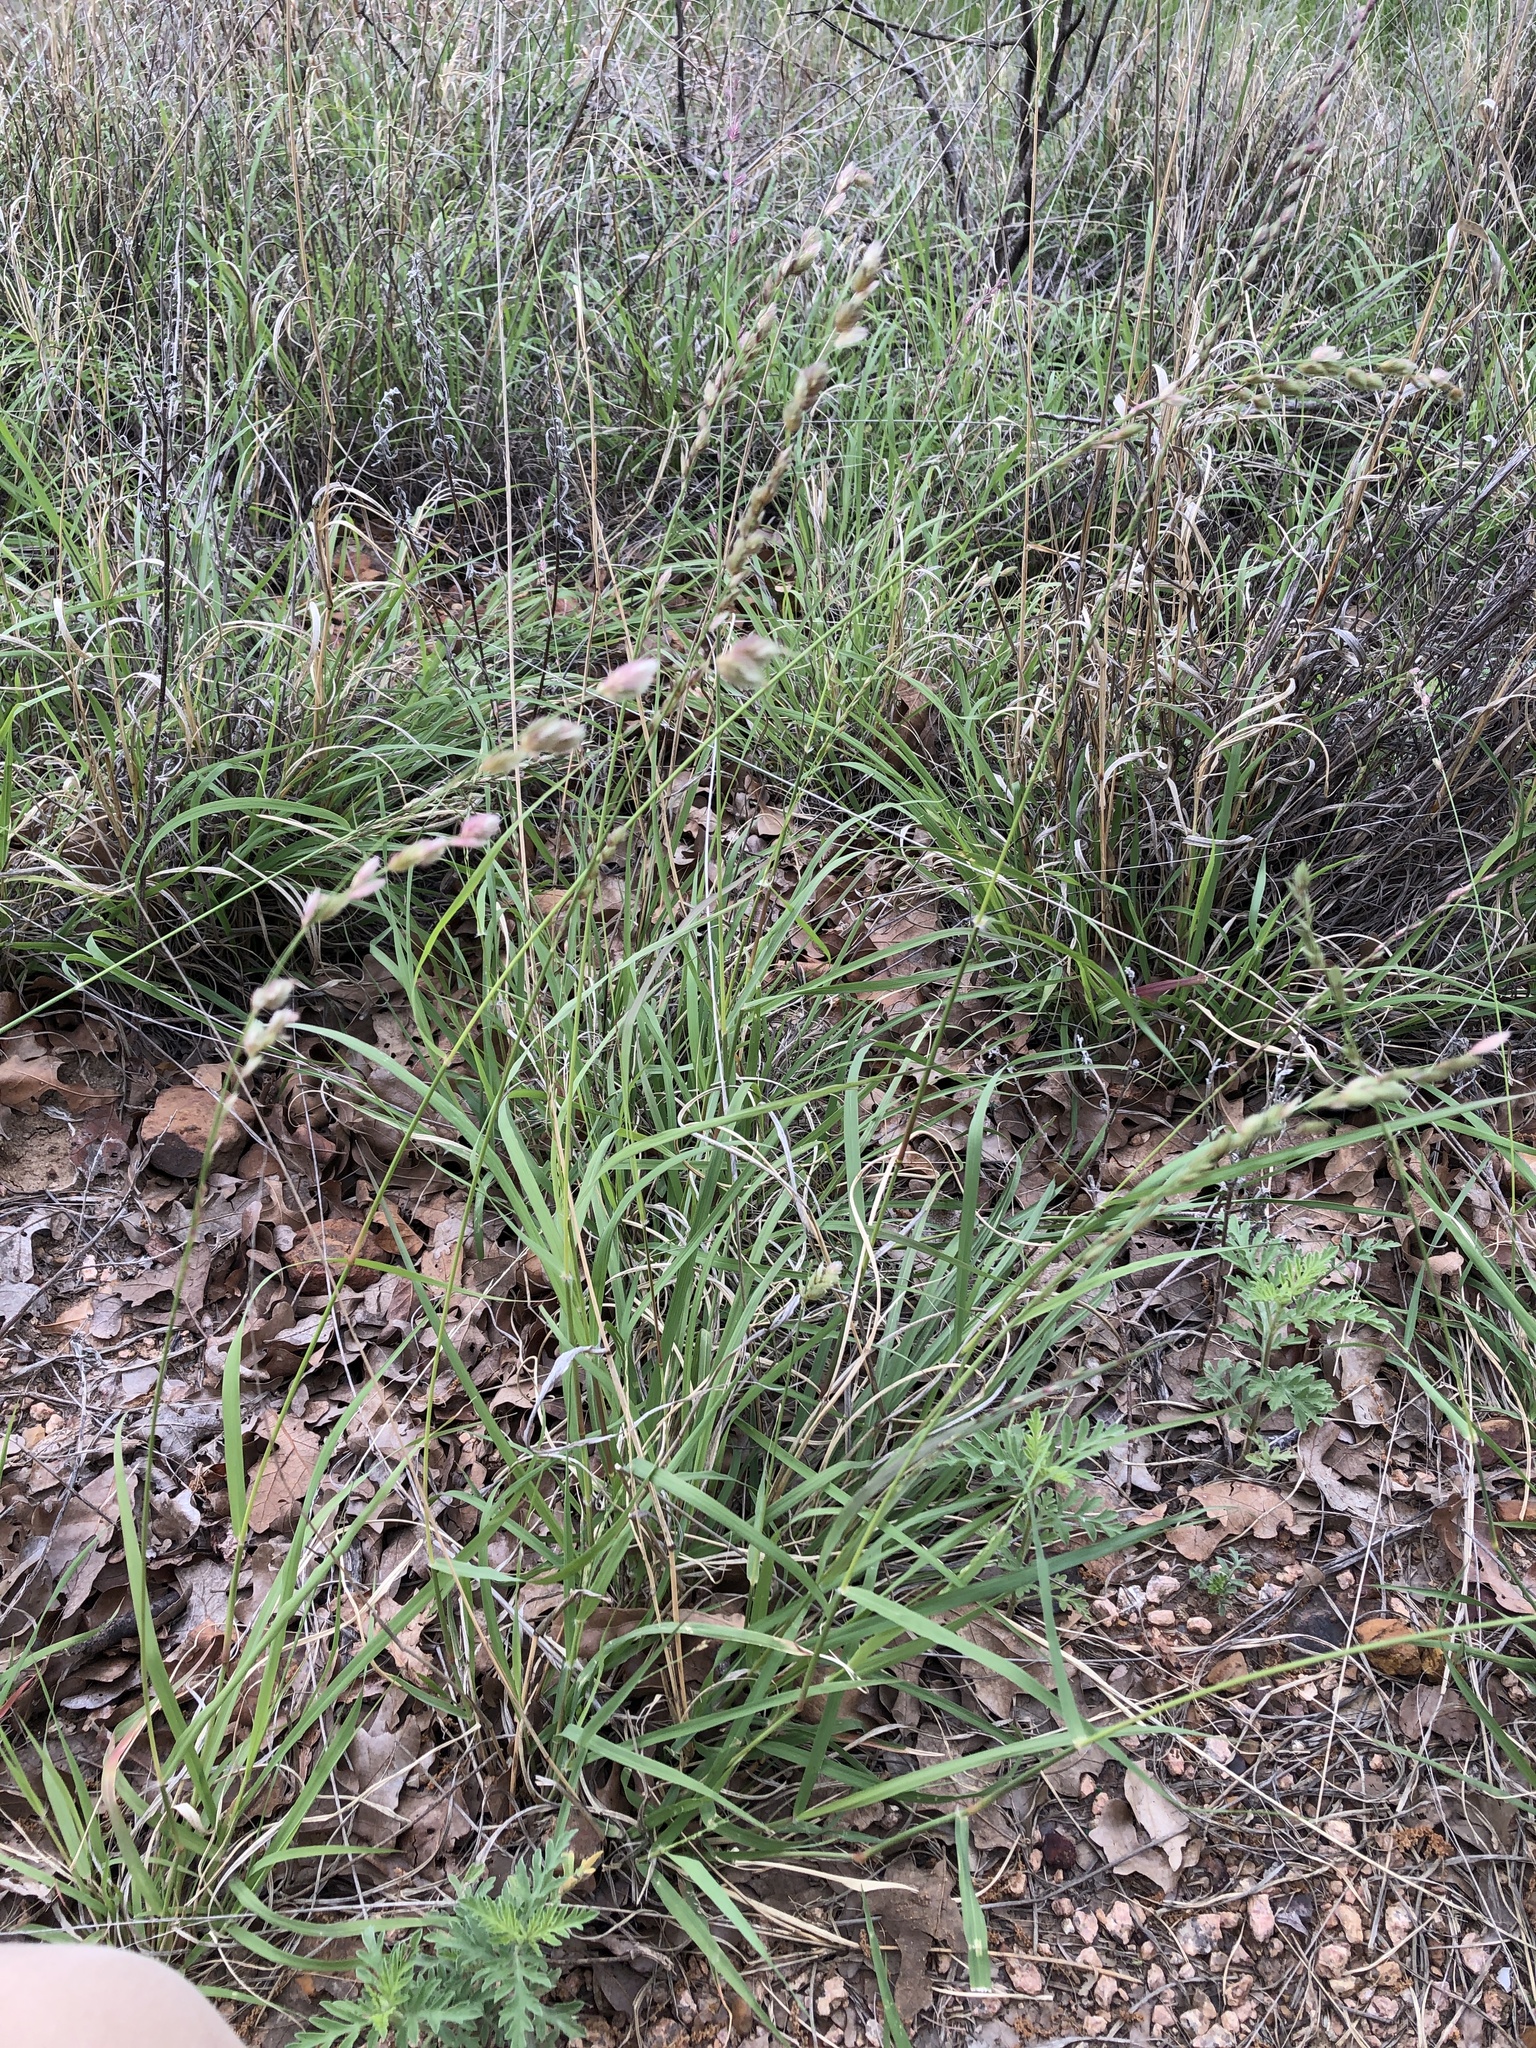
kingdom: Plantae
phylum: Tracheophyta
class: Liliopsida
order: Poales
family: Poaceae
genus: Eragrostis
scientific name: Eragrostis superba
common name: Wilman lovegrass
